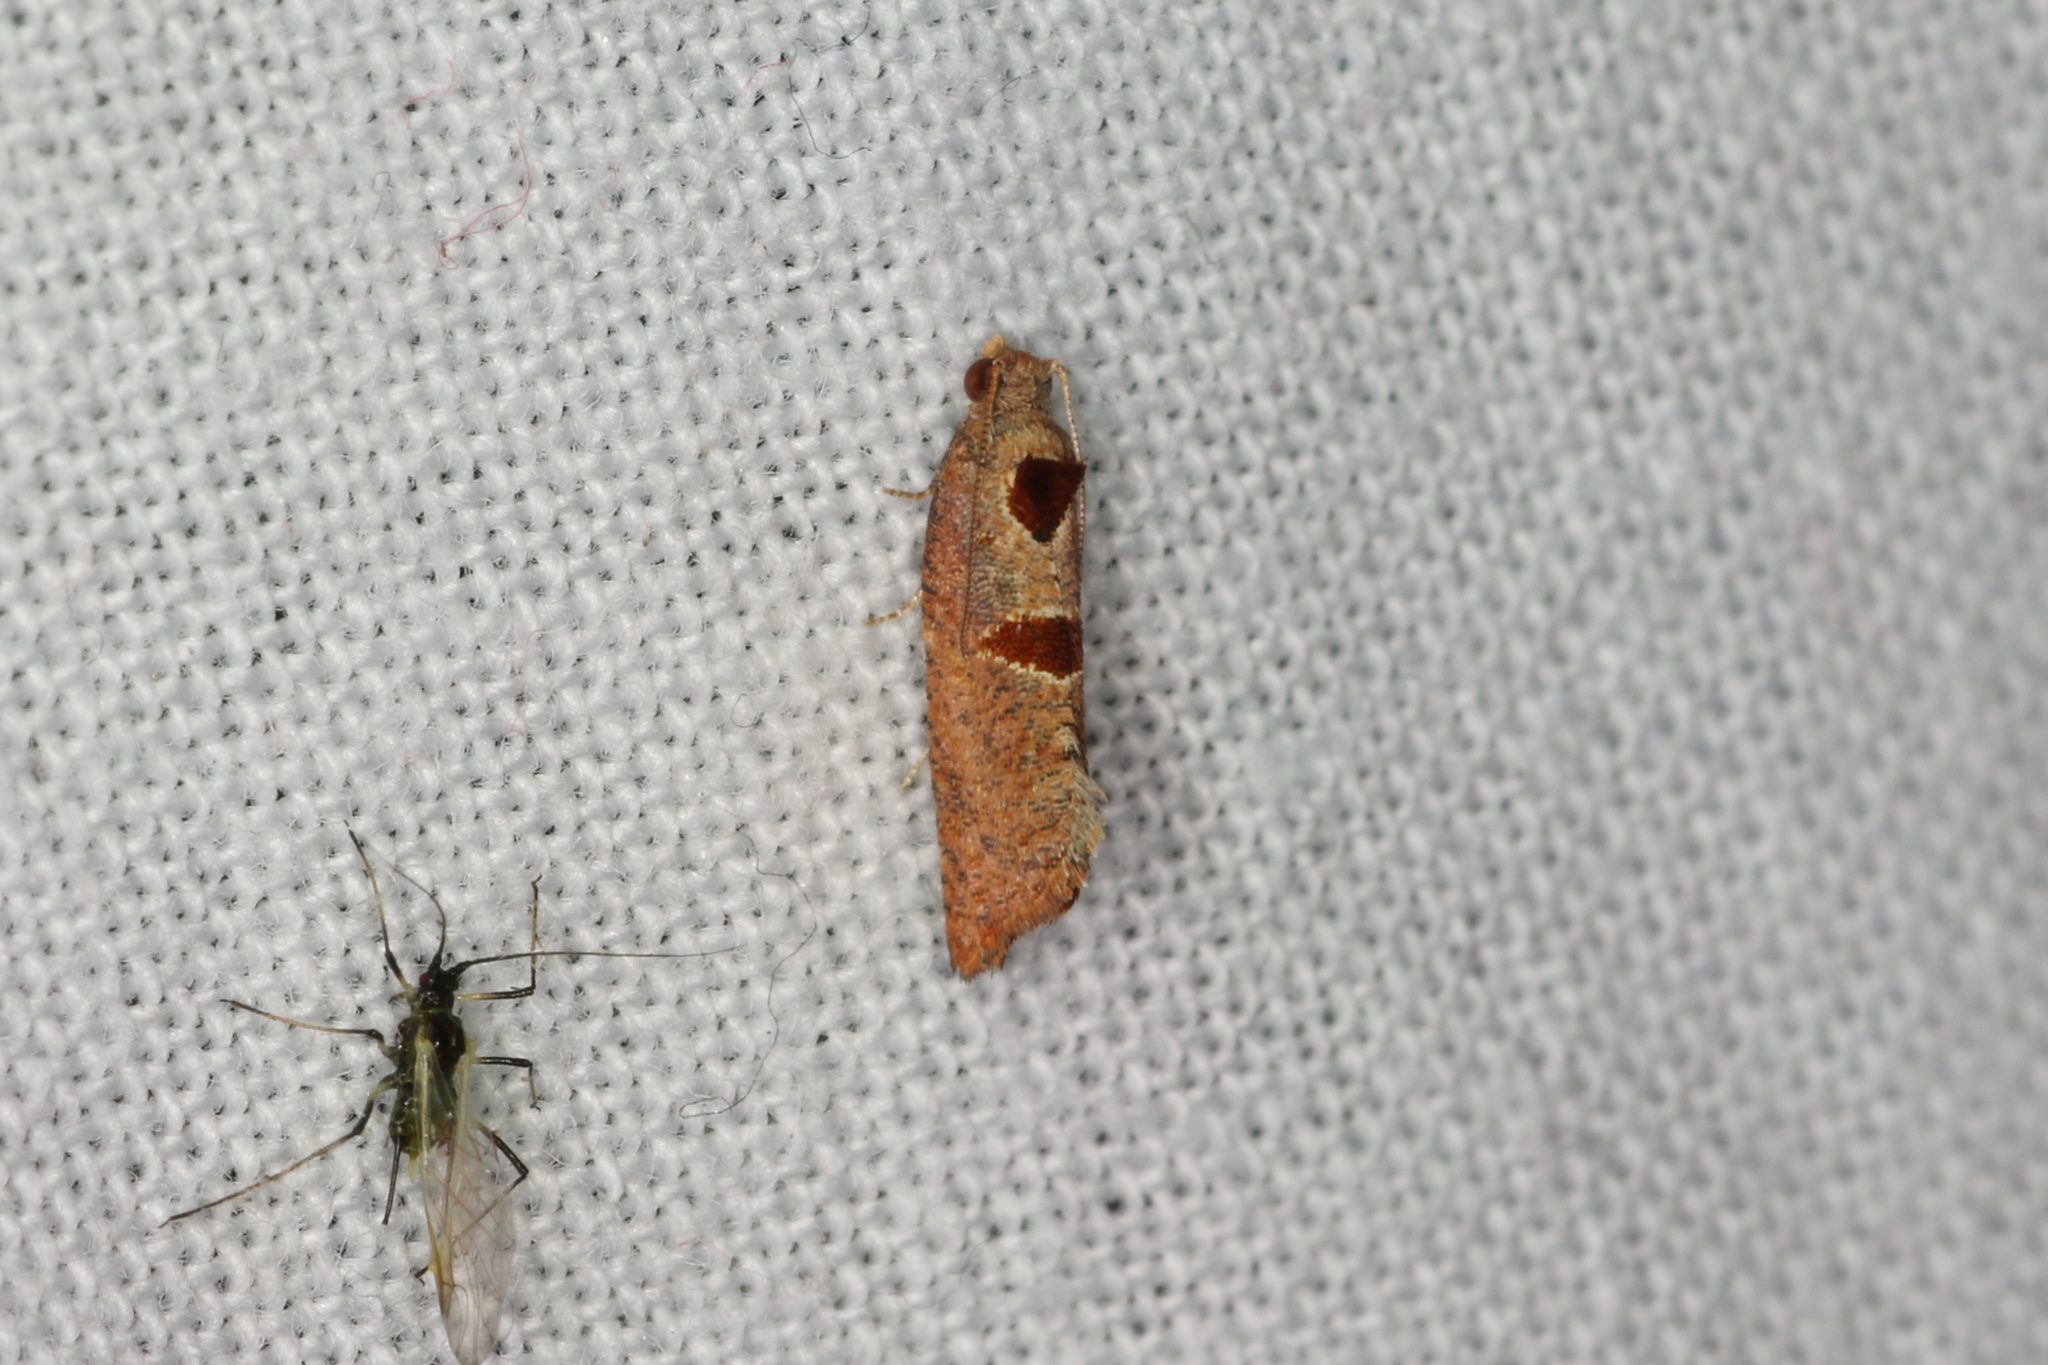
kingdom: Animalia
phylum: Arthropoda
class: Insecta
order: Lepidoptera
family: Tortricidae
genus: Glyphidoptera
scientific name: Glyphidoptera insignana
